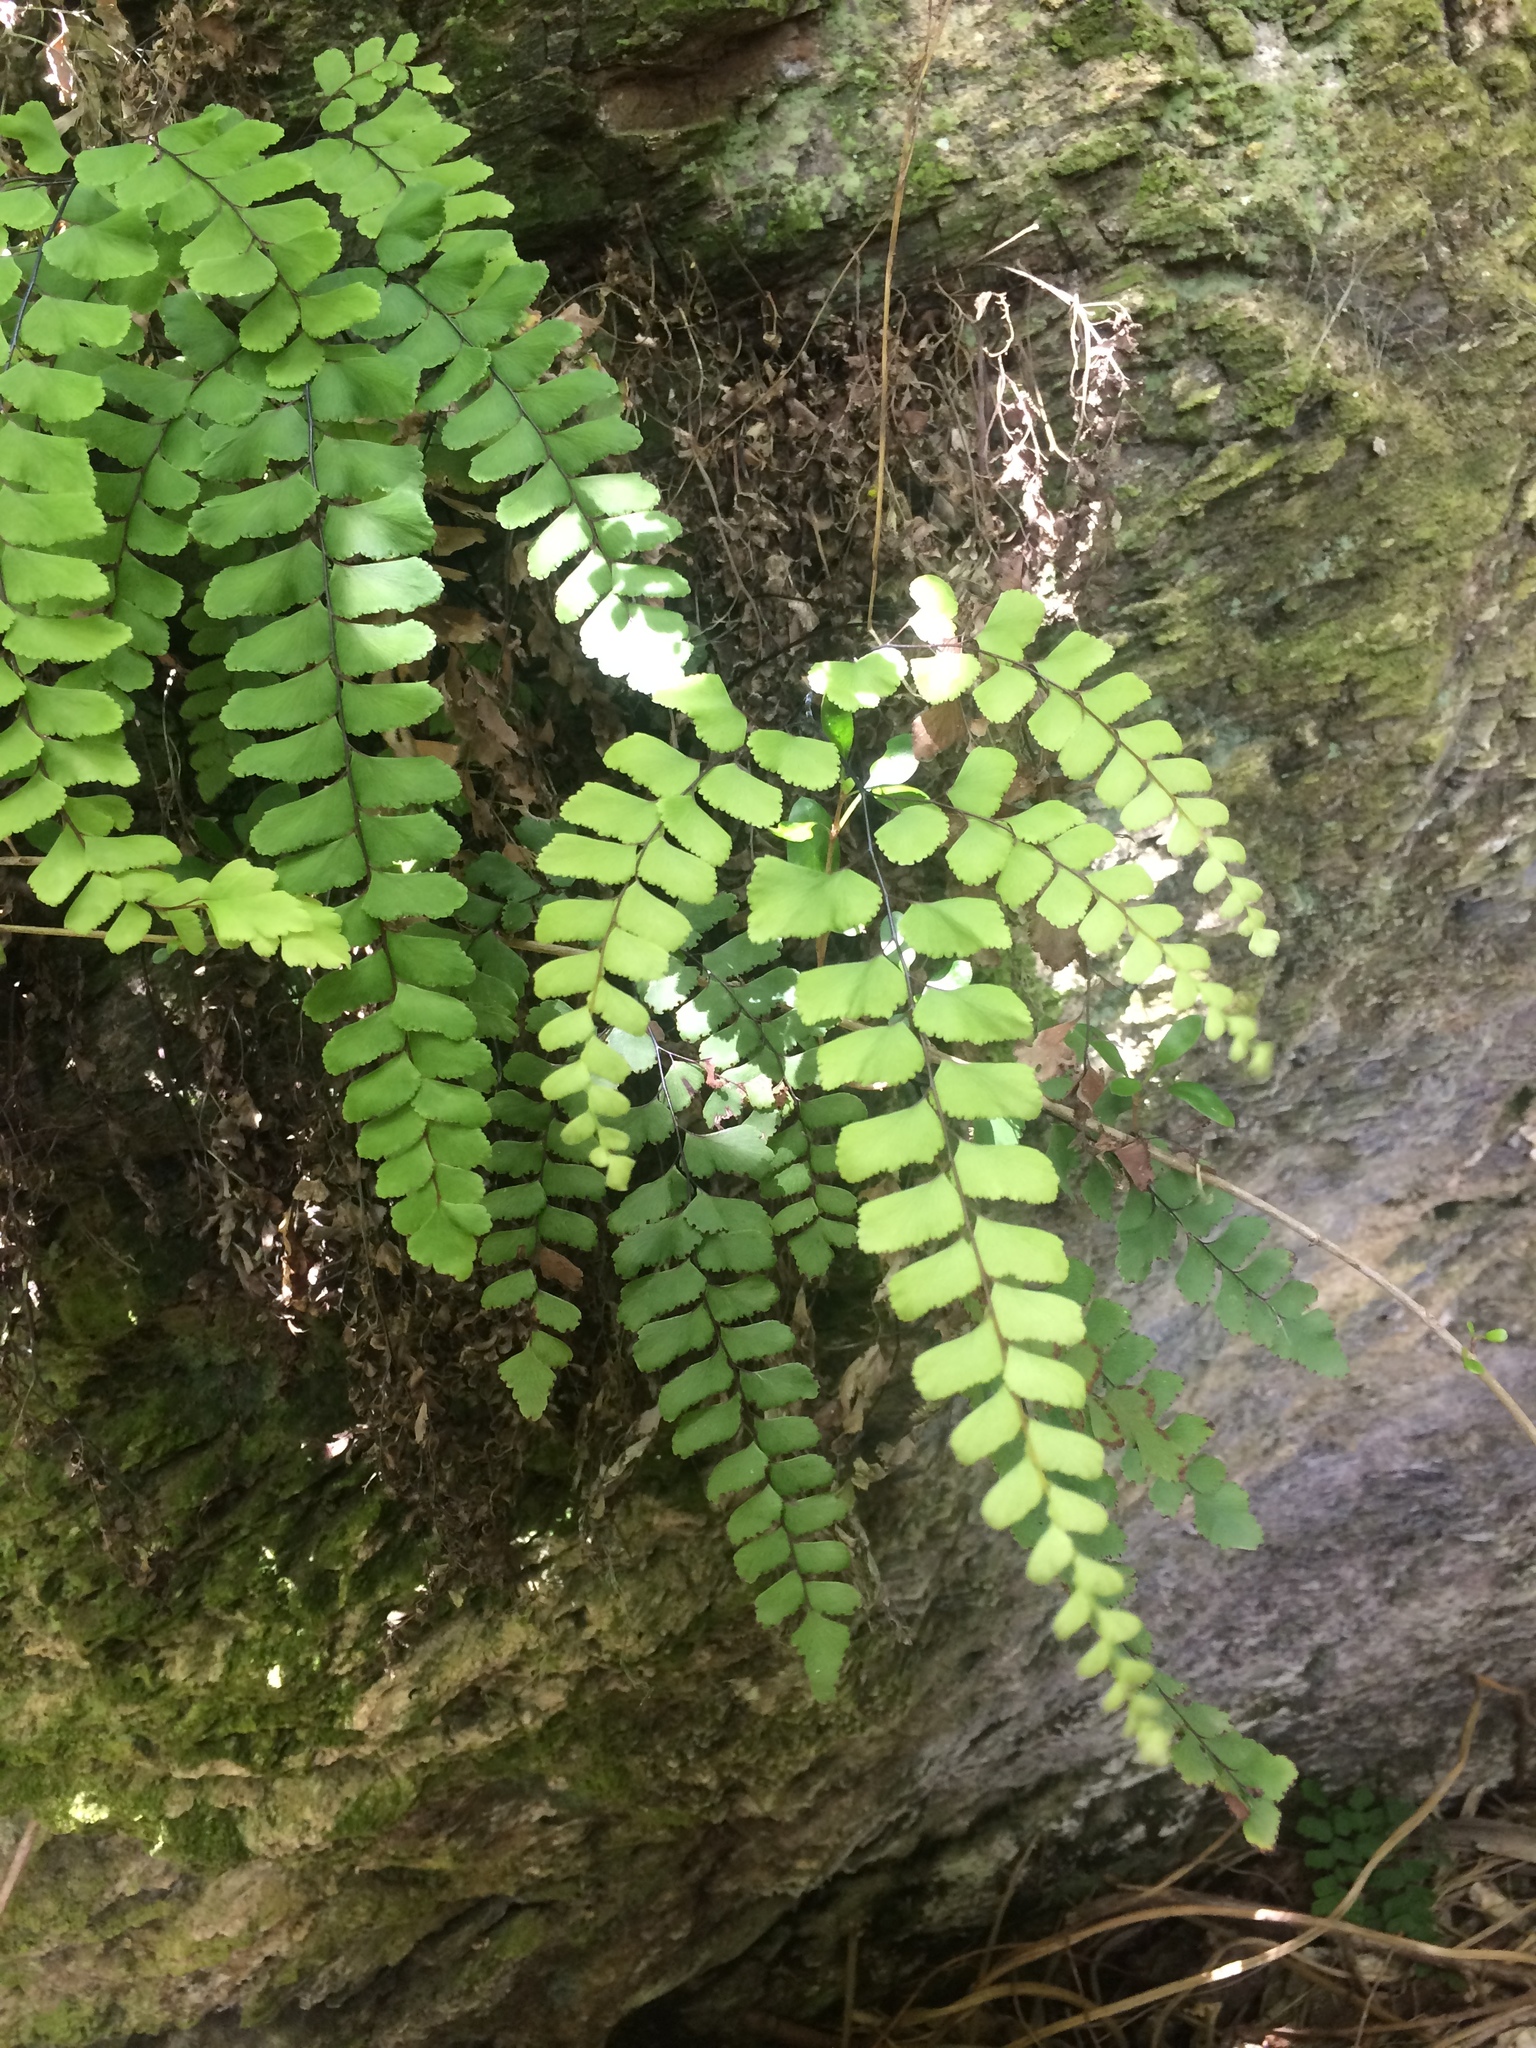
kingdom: Plantae
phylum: Tracheophyta
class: Polypodiopsida
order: Polypodiales
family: Pteridaceae
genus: Adiantum
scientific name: Adiantum cunninghamii
